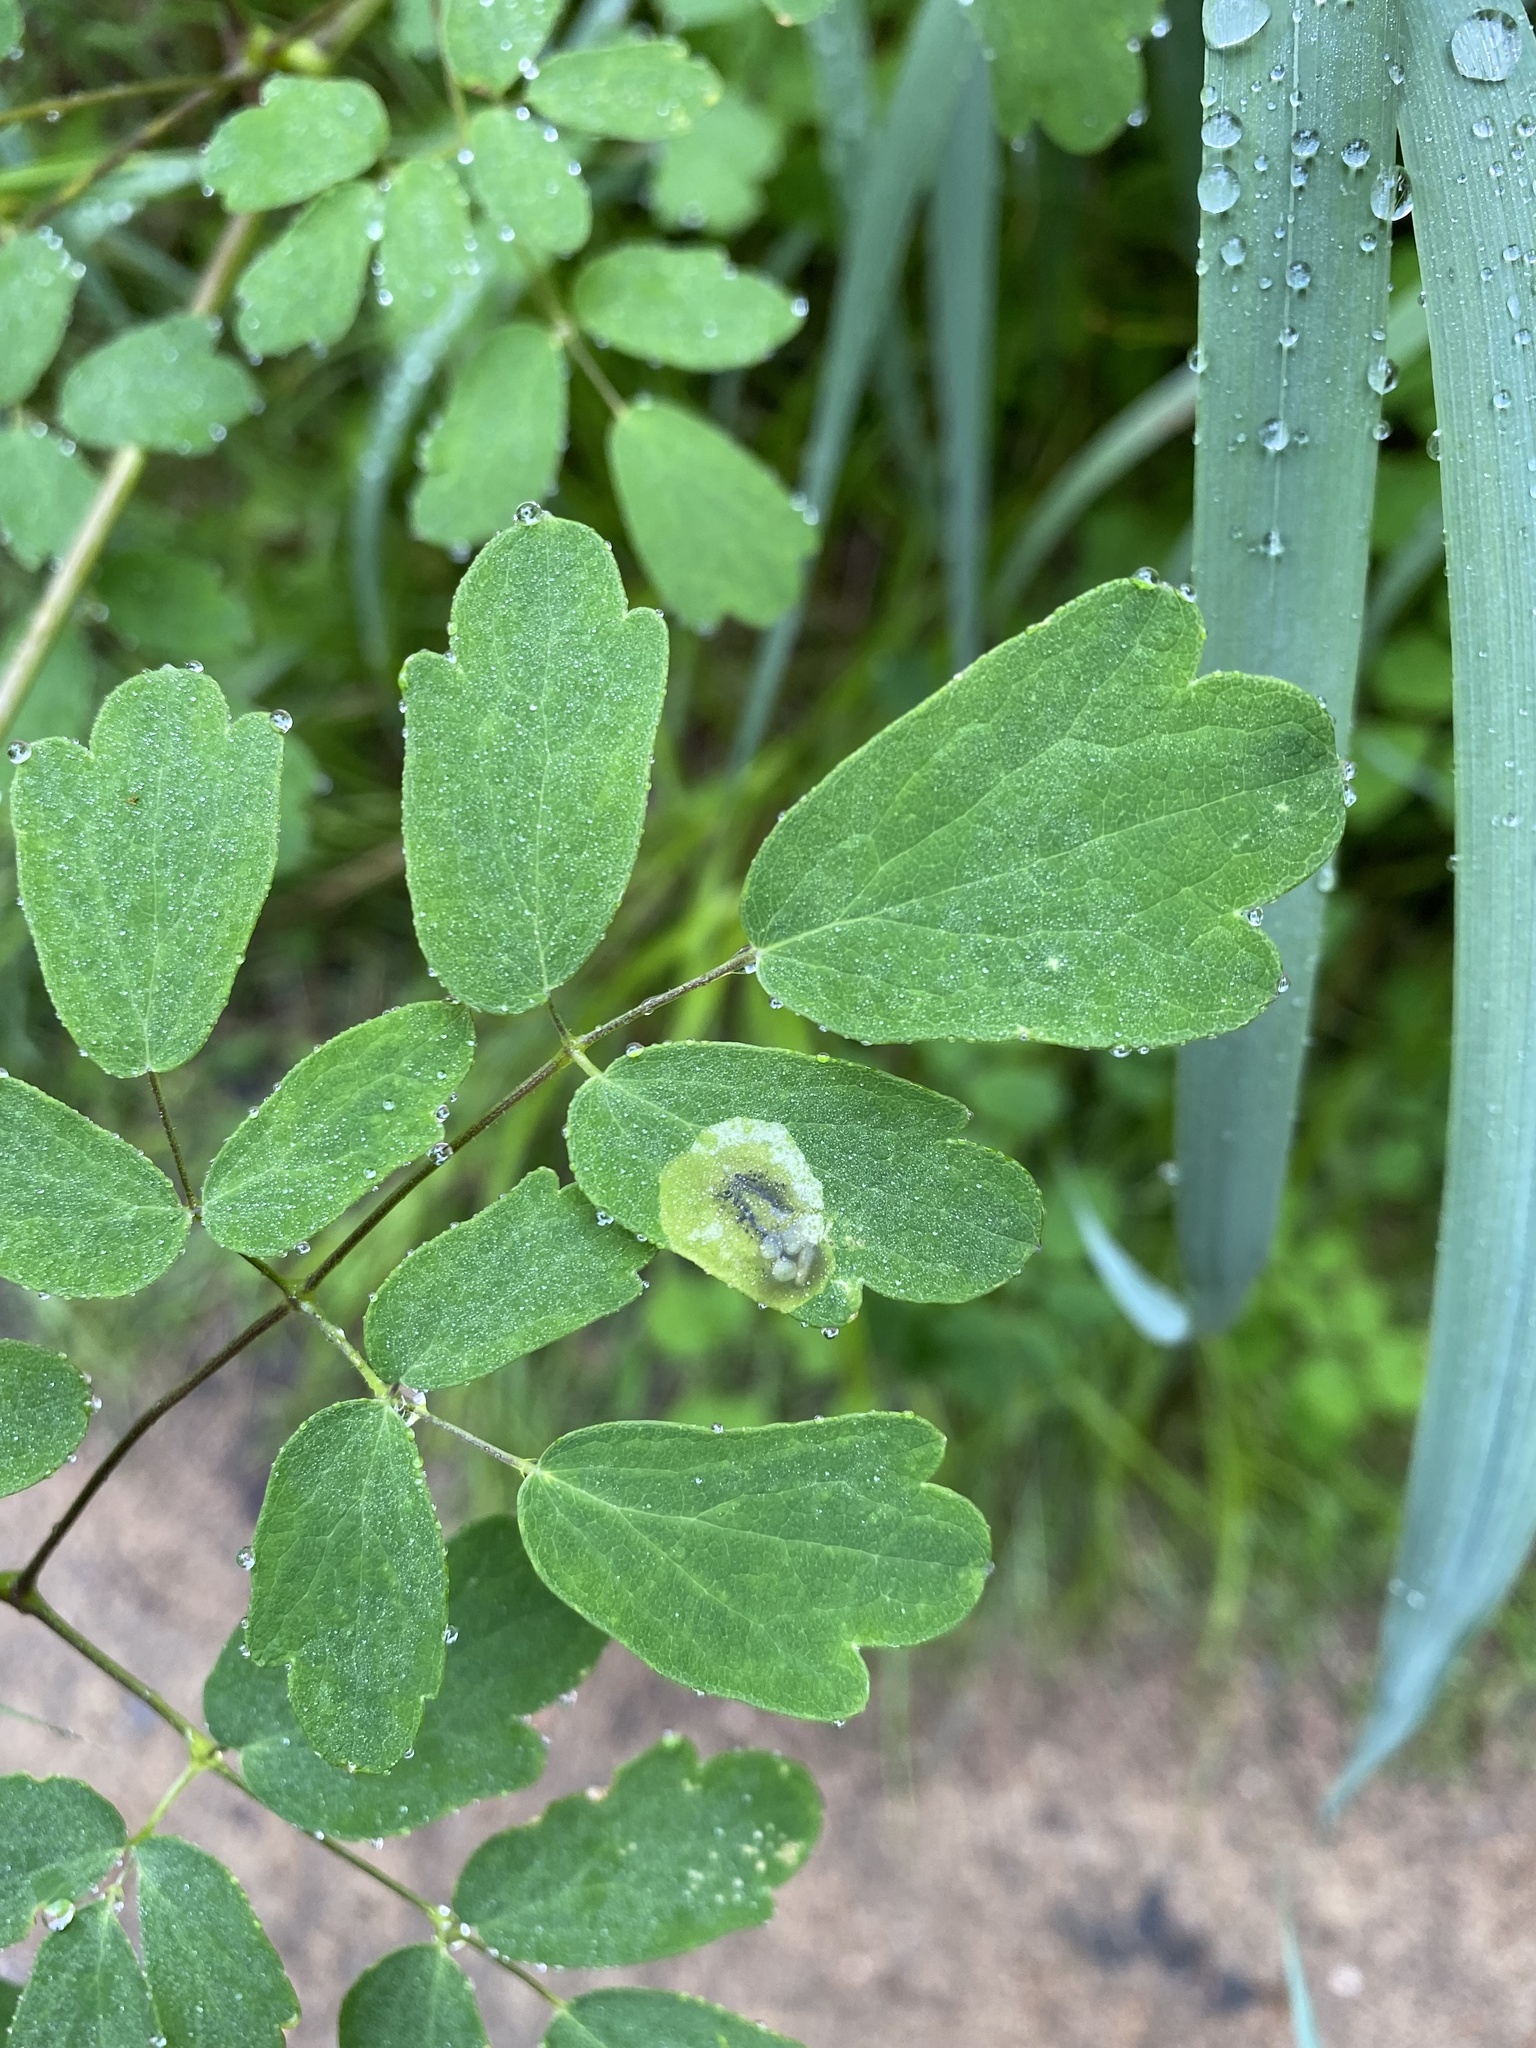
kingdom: Animalia
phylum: Arthropoda
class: Insecta
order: Diptera
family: Agromyzidae
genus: Phytomyza
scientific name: Phytomyza plumiseta
